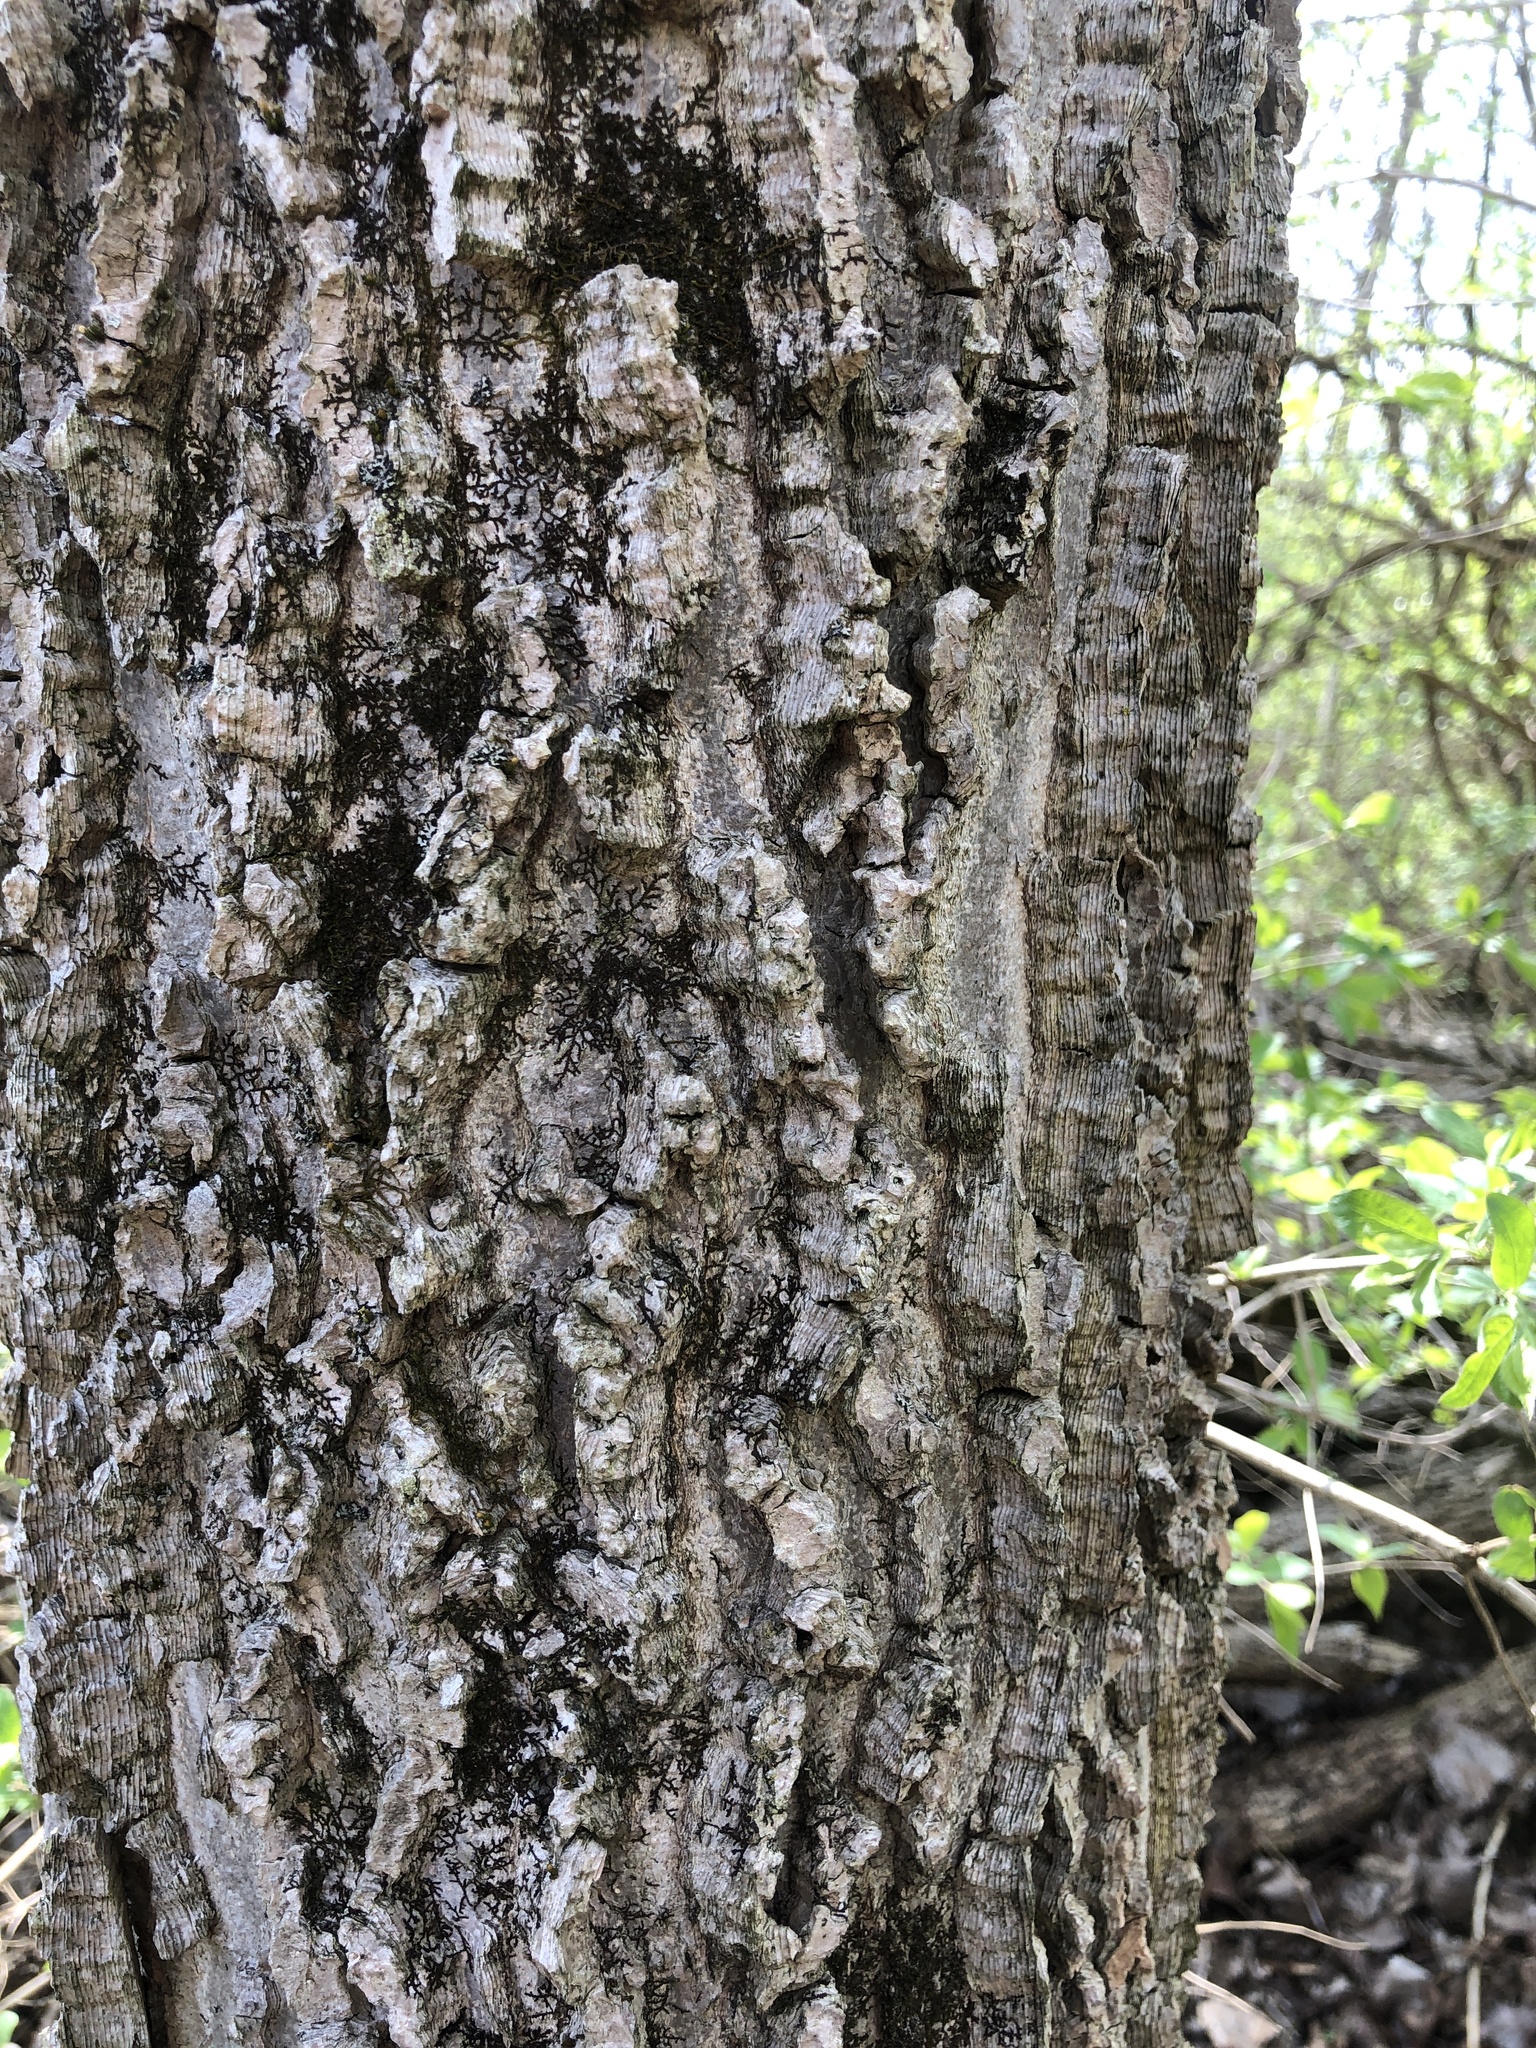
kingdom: Plantae
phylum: Tracheophyta
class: Magnoliopsida
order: Rosales
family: Cannabaceae
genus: Celtis
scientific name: Celtis occidentalis
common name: Common hackberry
